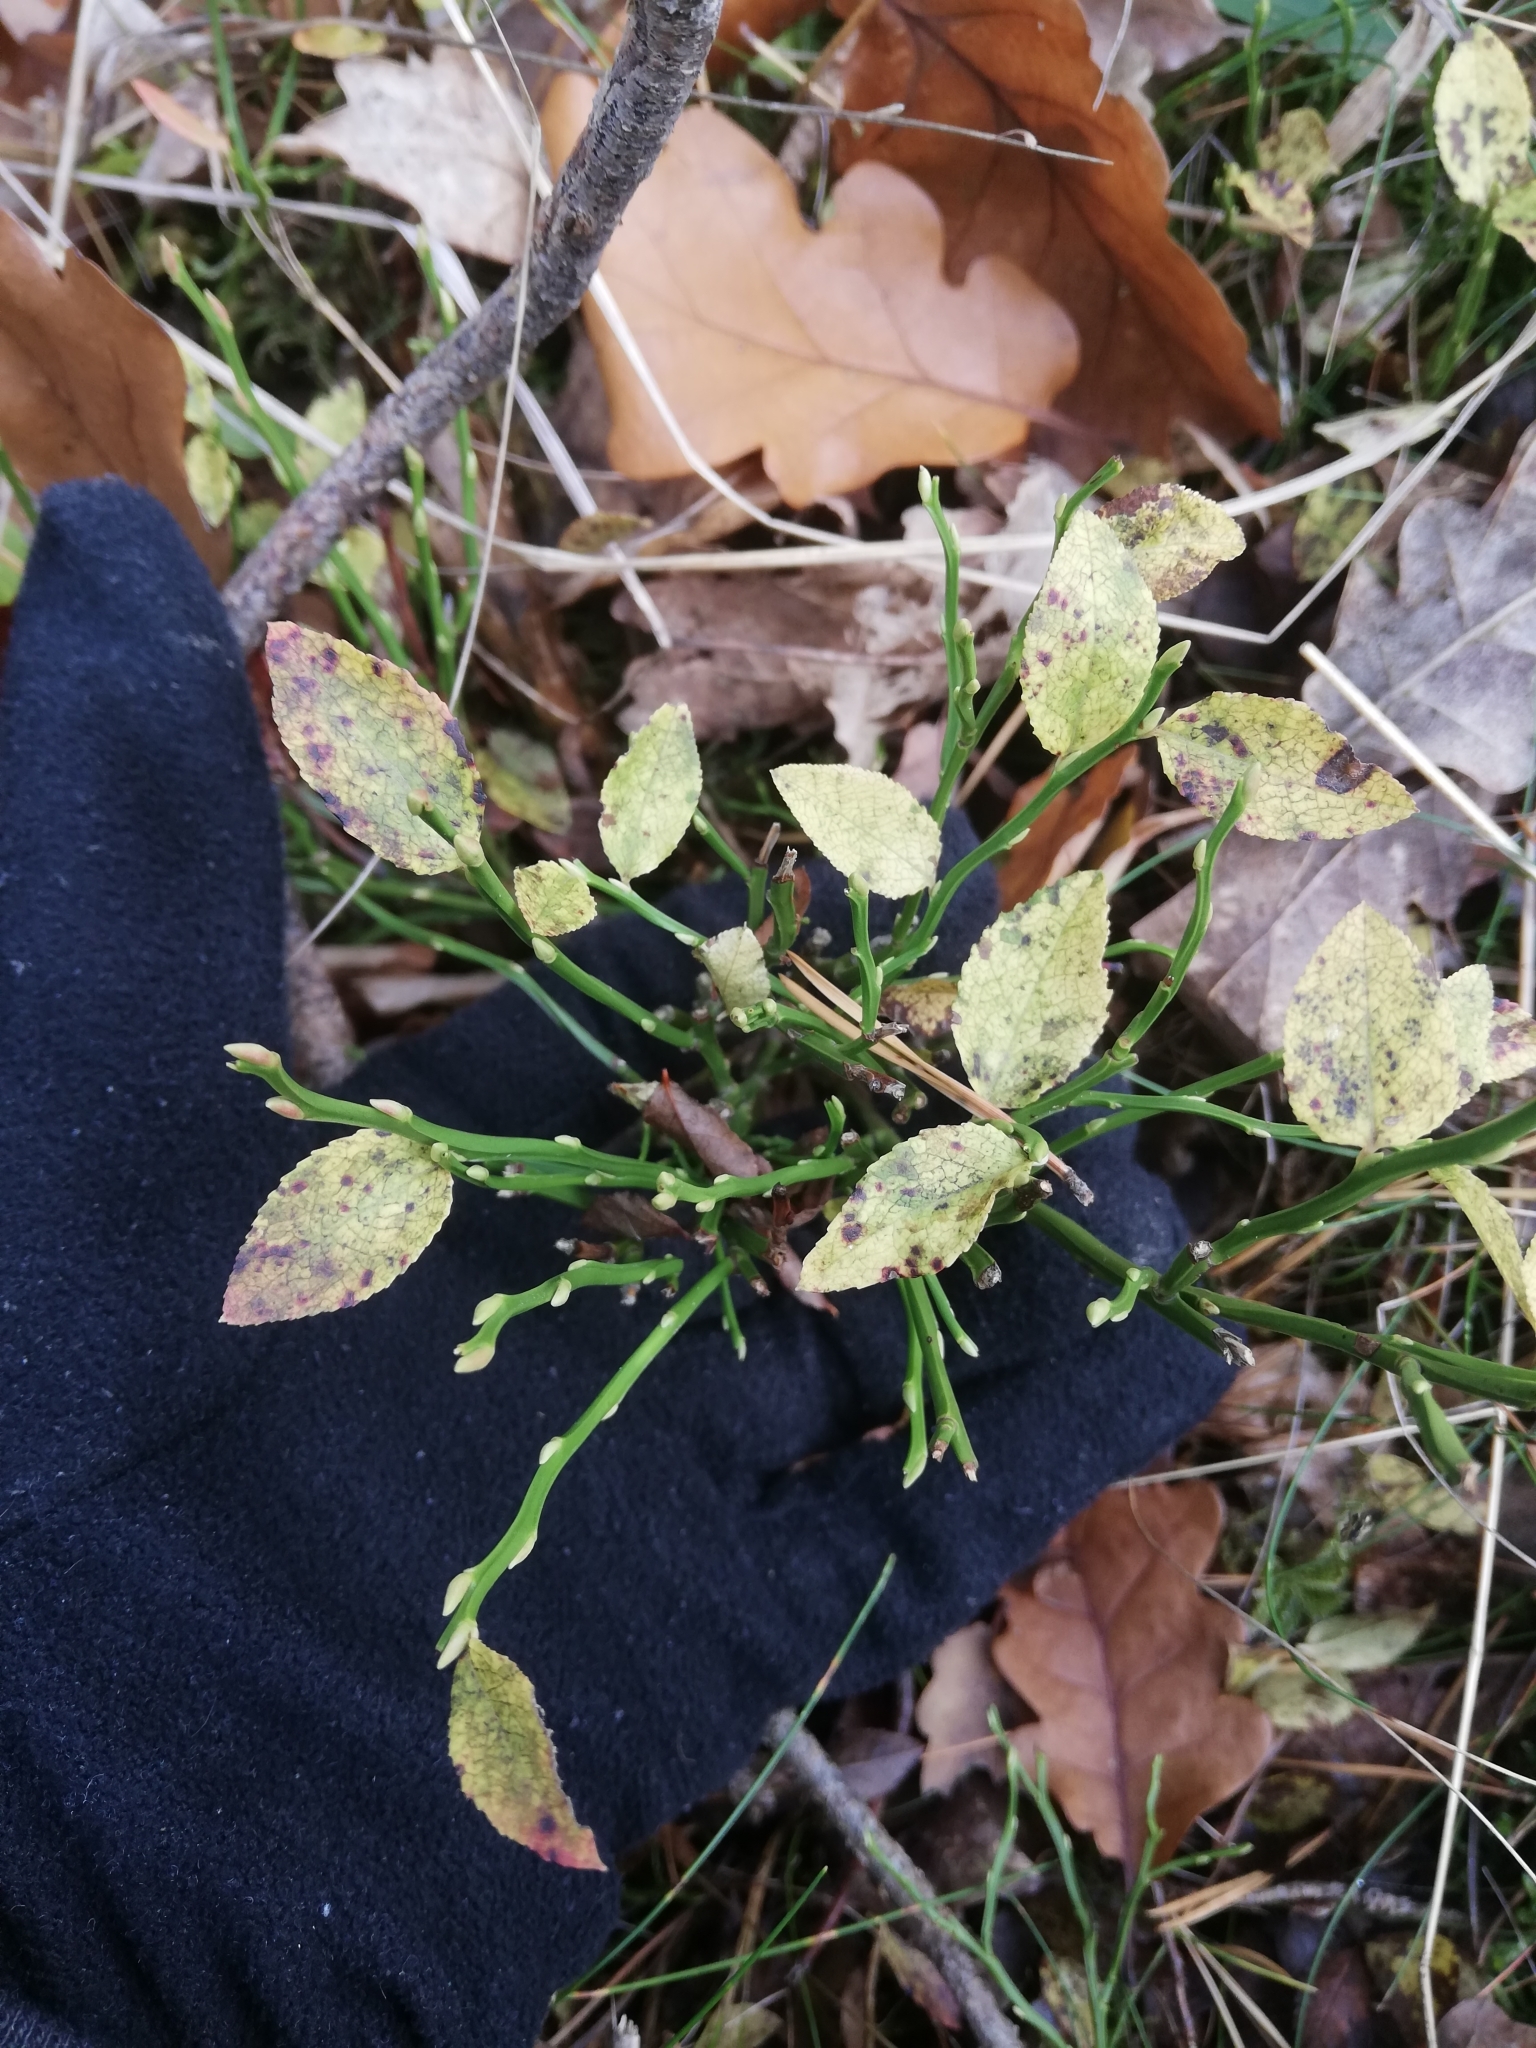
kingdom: Plantae
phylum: Tracheophyta
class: Magnoliopsida
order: Ericales
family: Ericaceae
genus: Vaccinium
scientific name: Vaccinium myrtillus
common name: Bilberry
